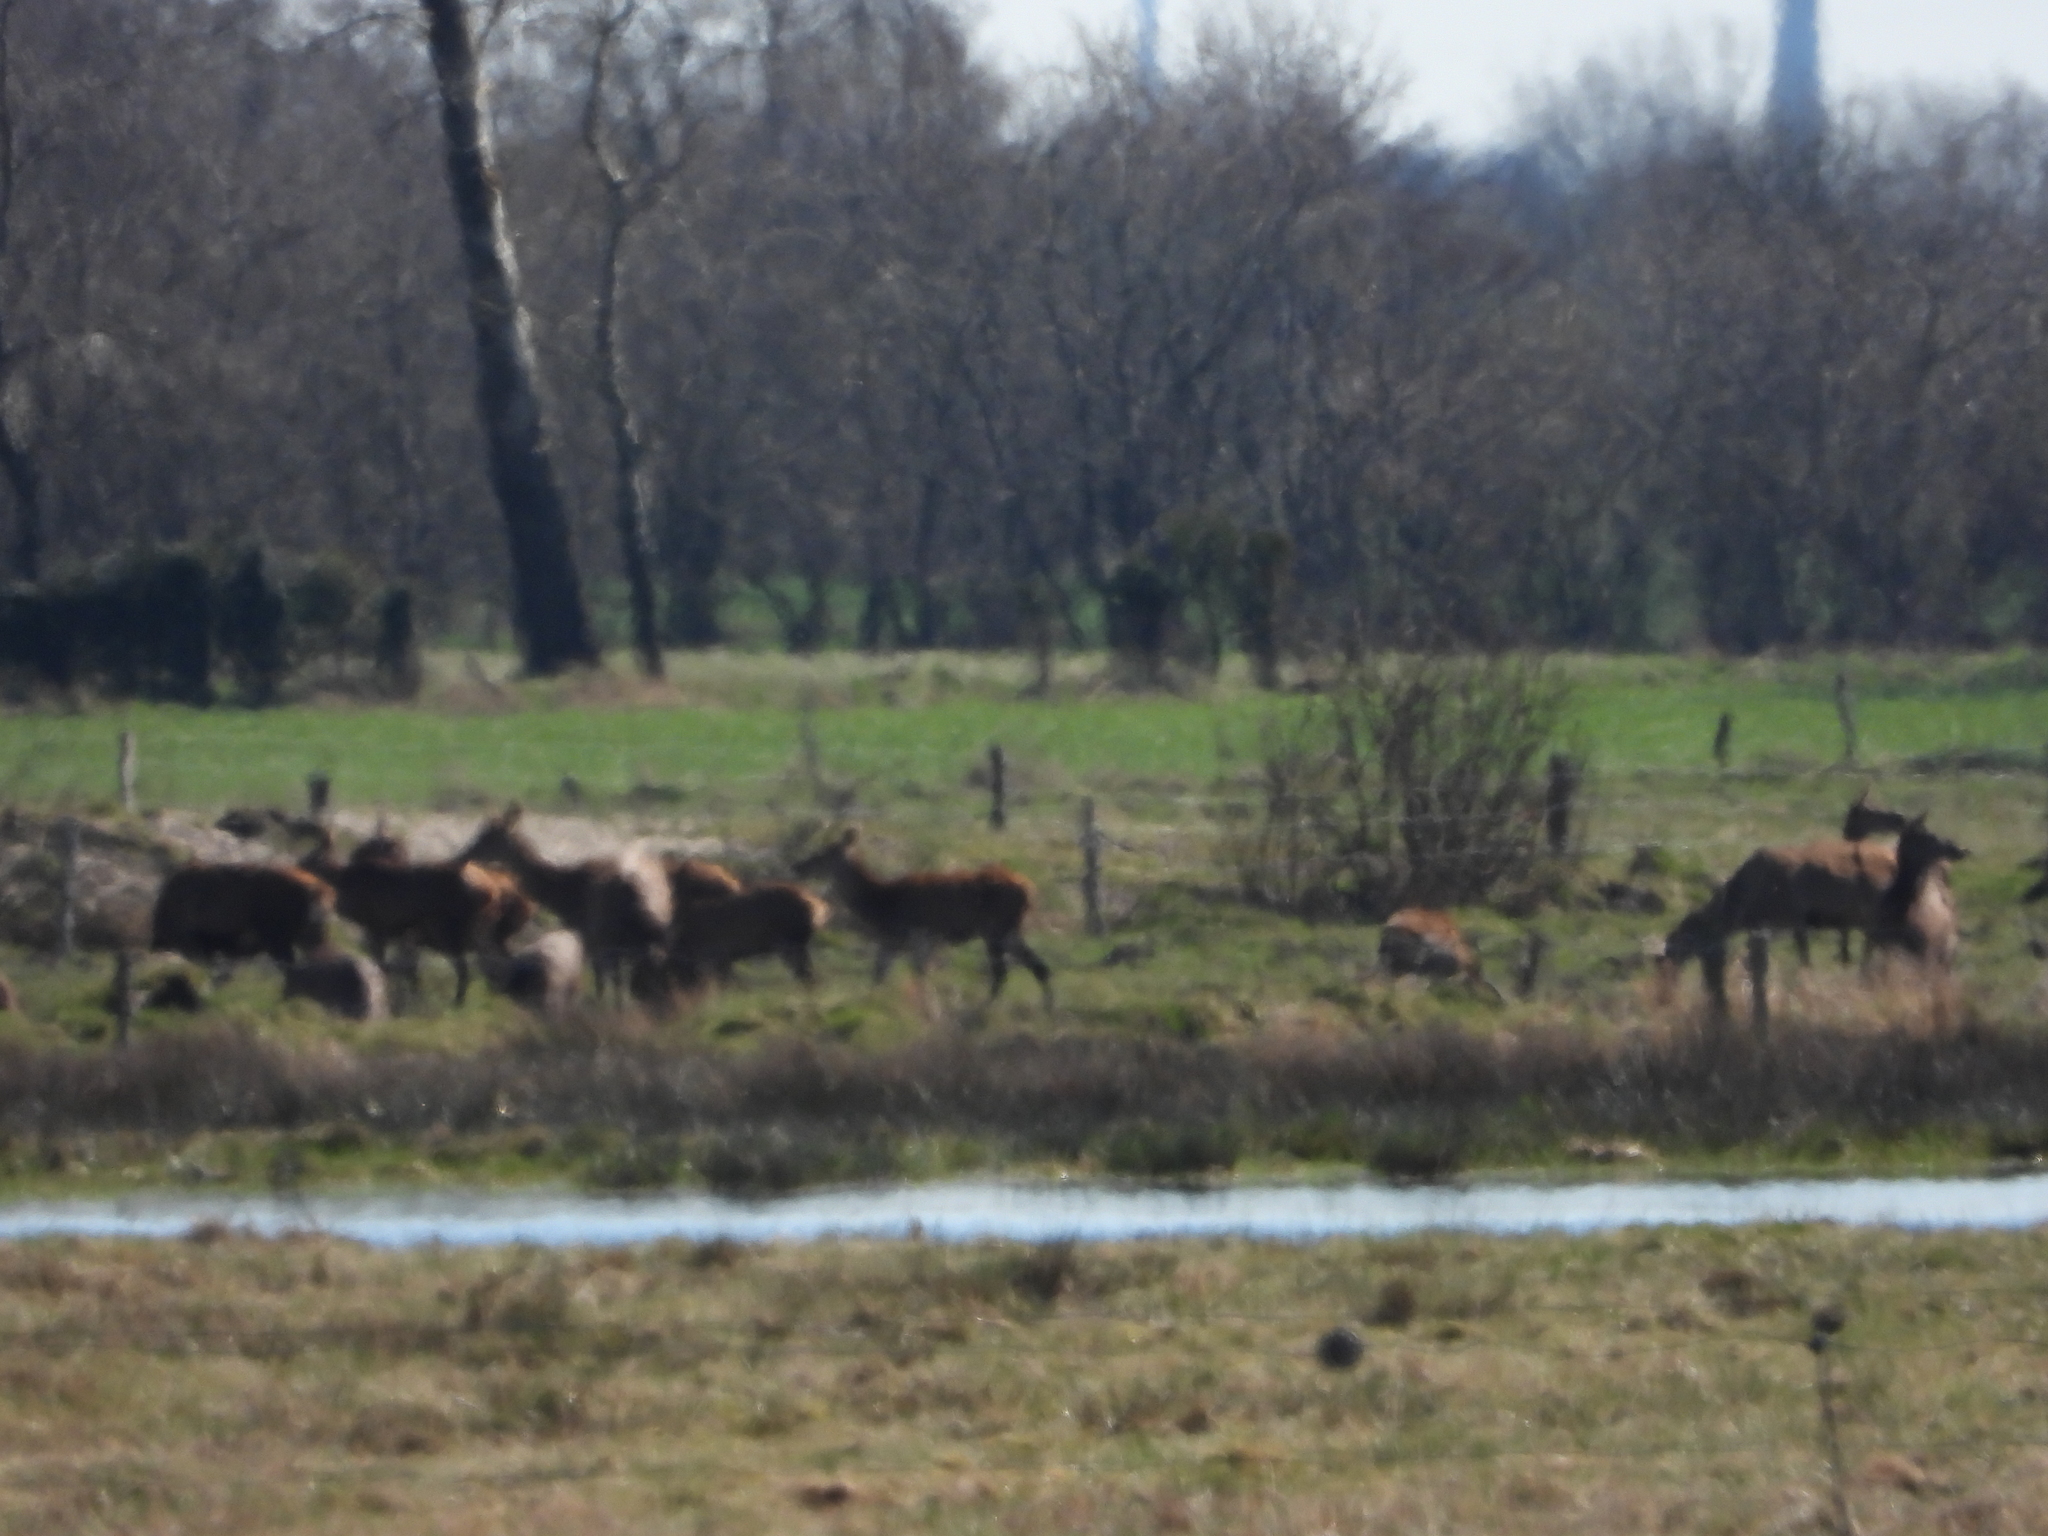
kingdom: Animalia
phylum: Chordata
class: Mammalia
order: Artiodactyla
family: Cervidae
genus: Cervus
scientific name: Cervus elaphus
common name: Red deer
